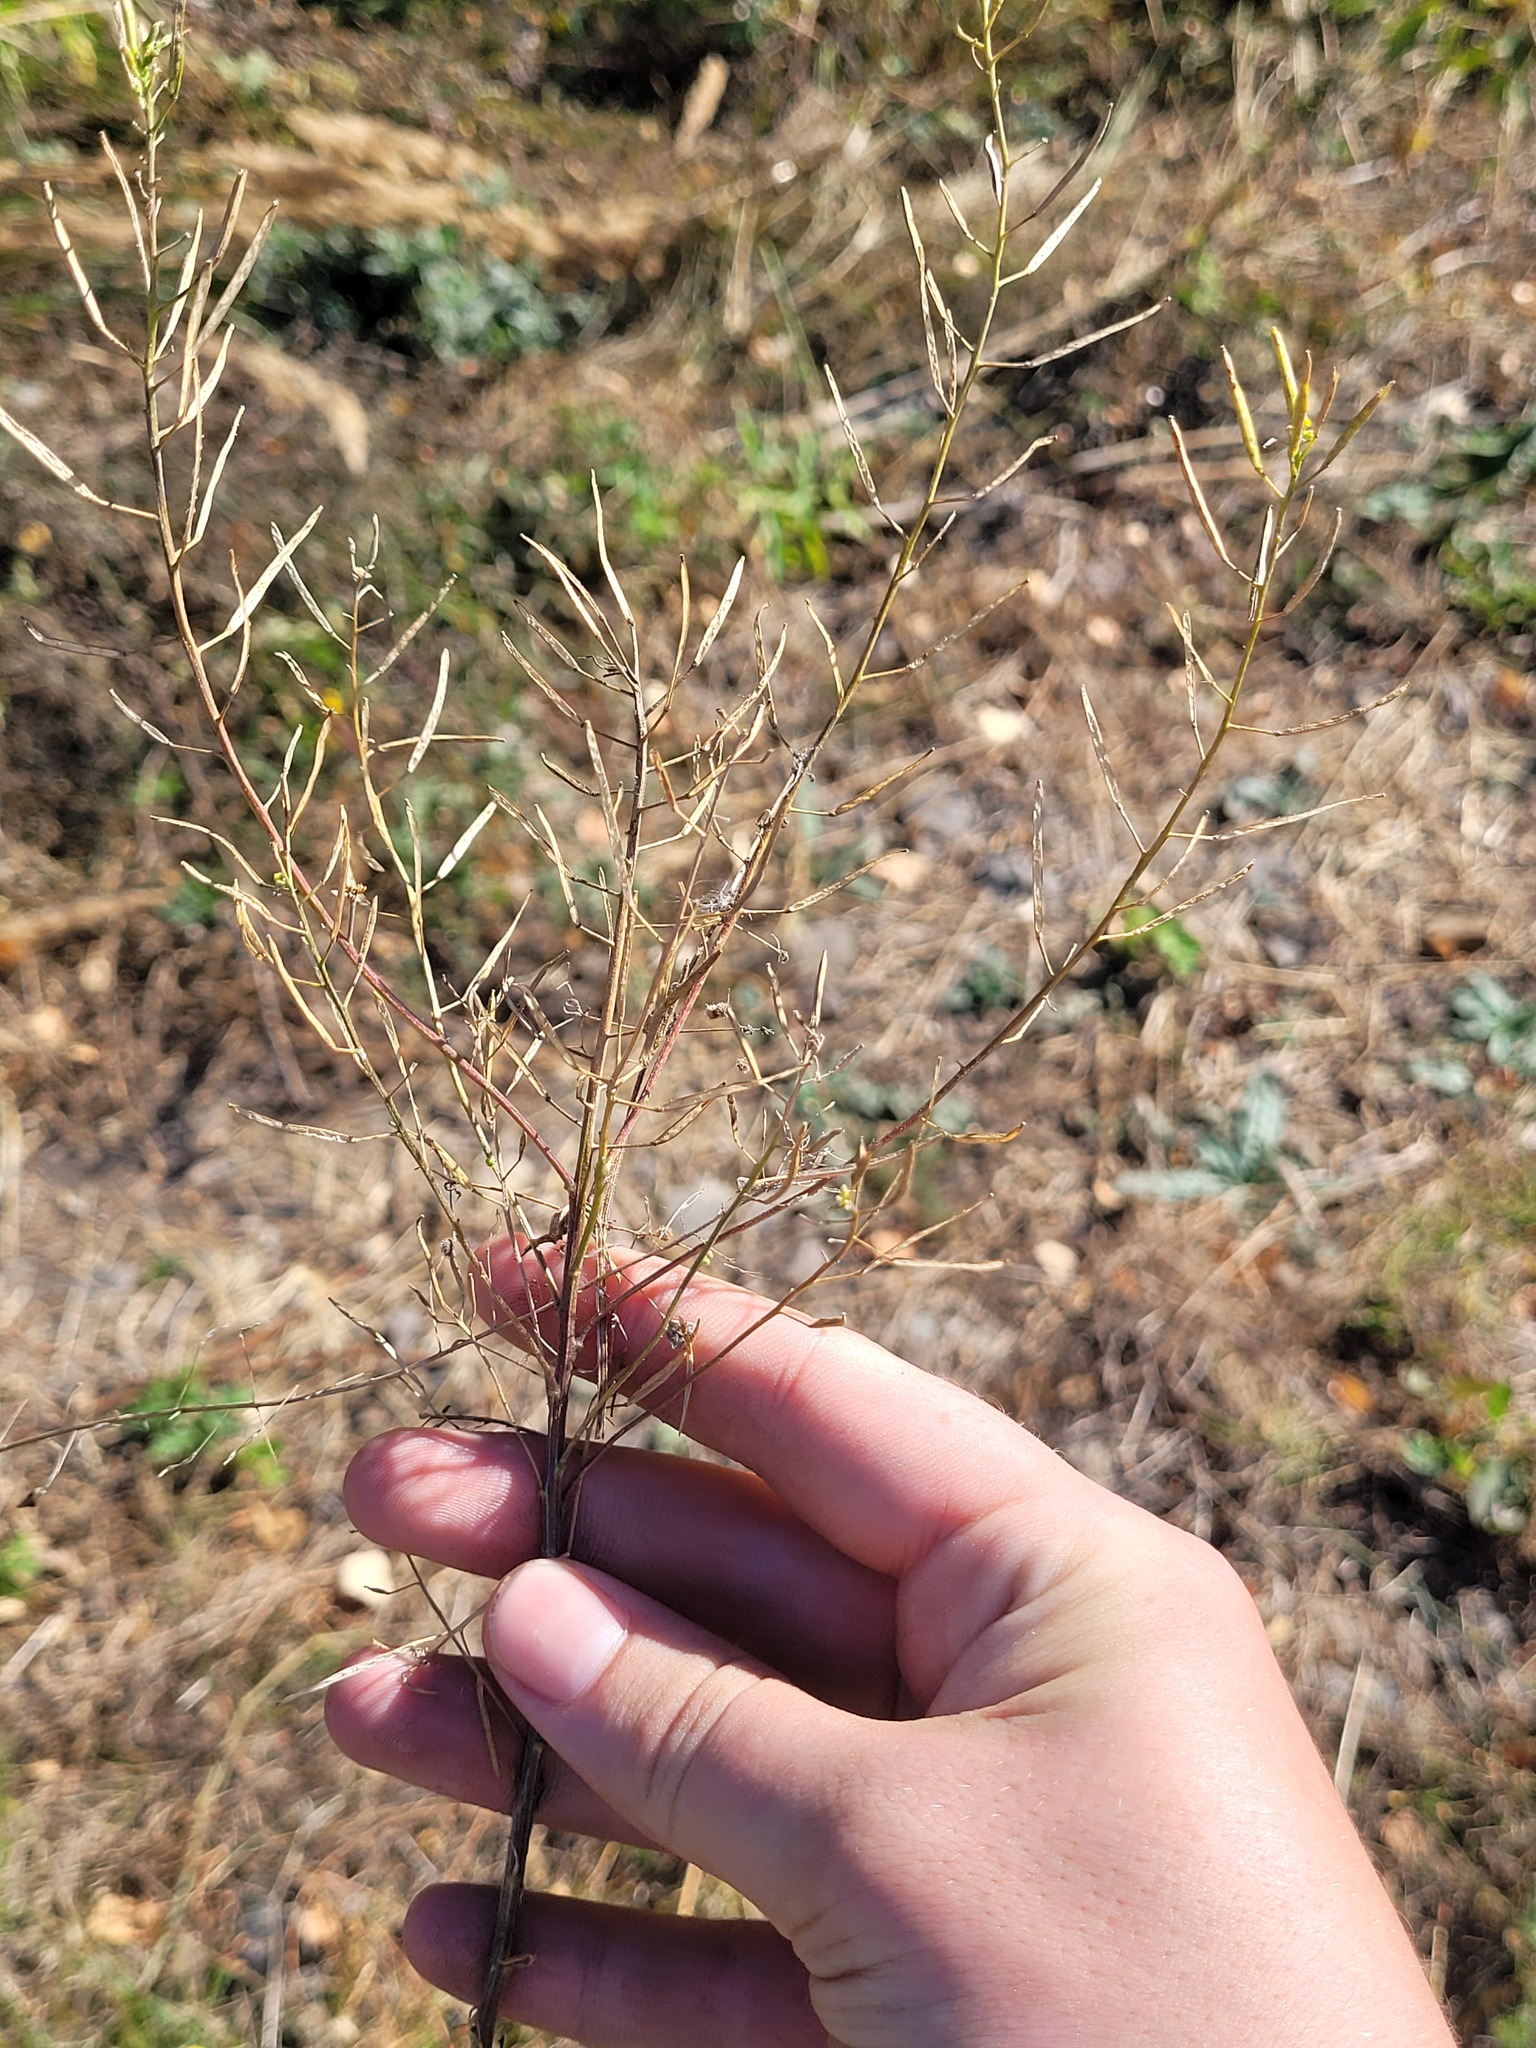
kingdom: Plantae
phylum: Tracheophyta
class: Magnoliopsida
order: Brassicales
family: Brassicaceae
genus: Erysimum
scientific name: Erysimum cheiranthoides
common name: Treacle mustard
